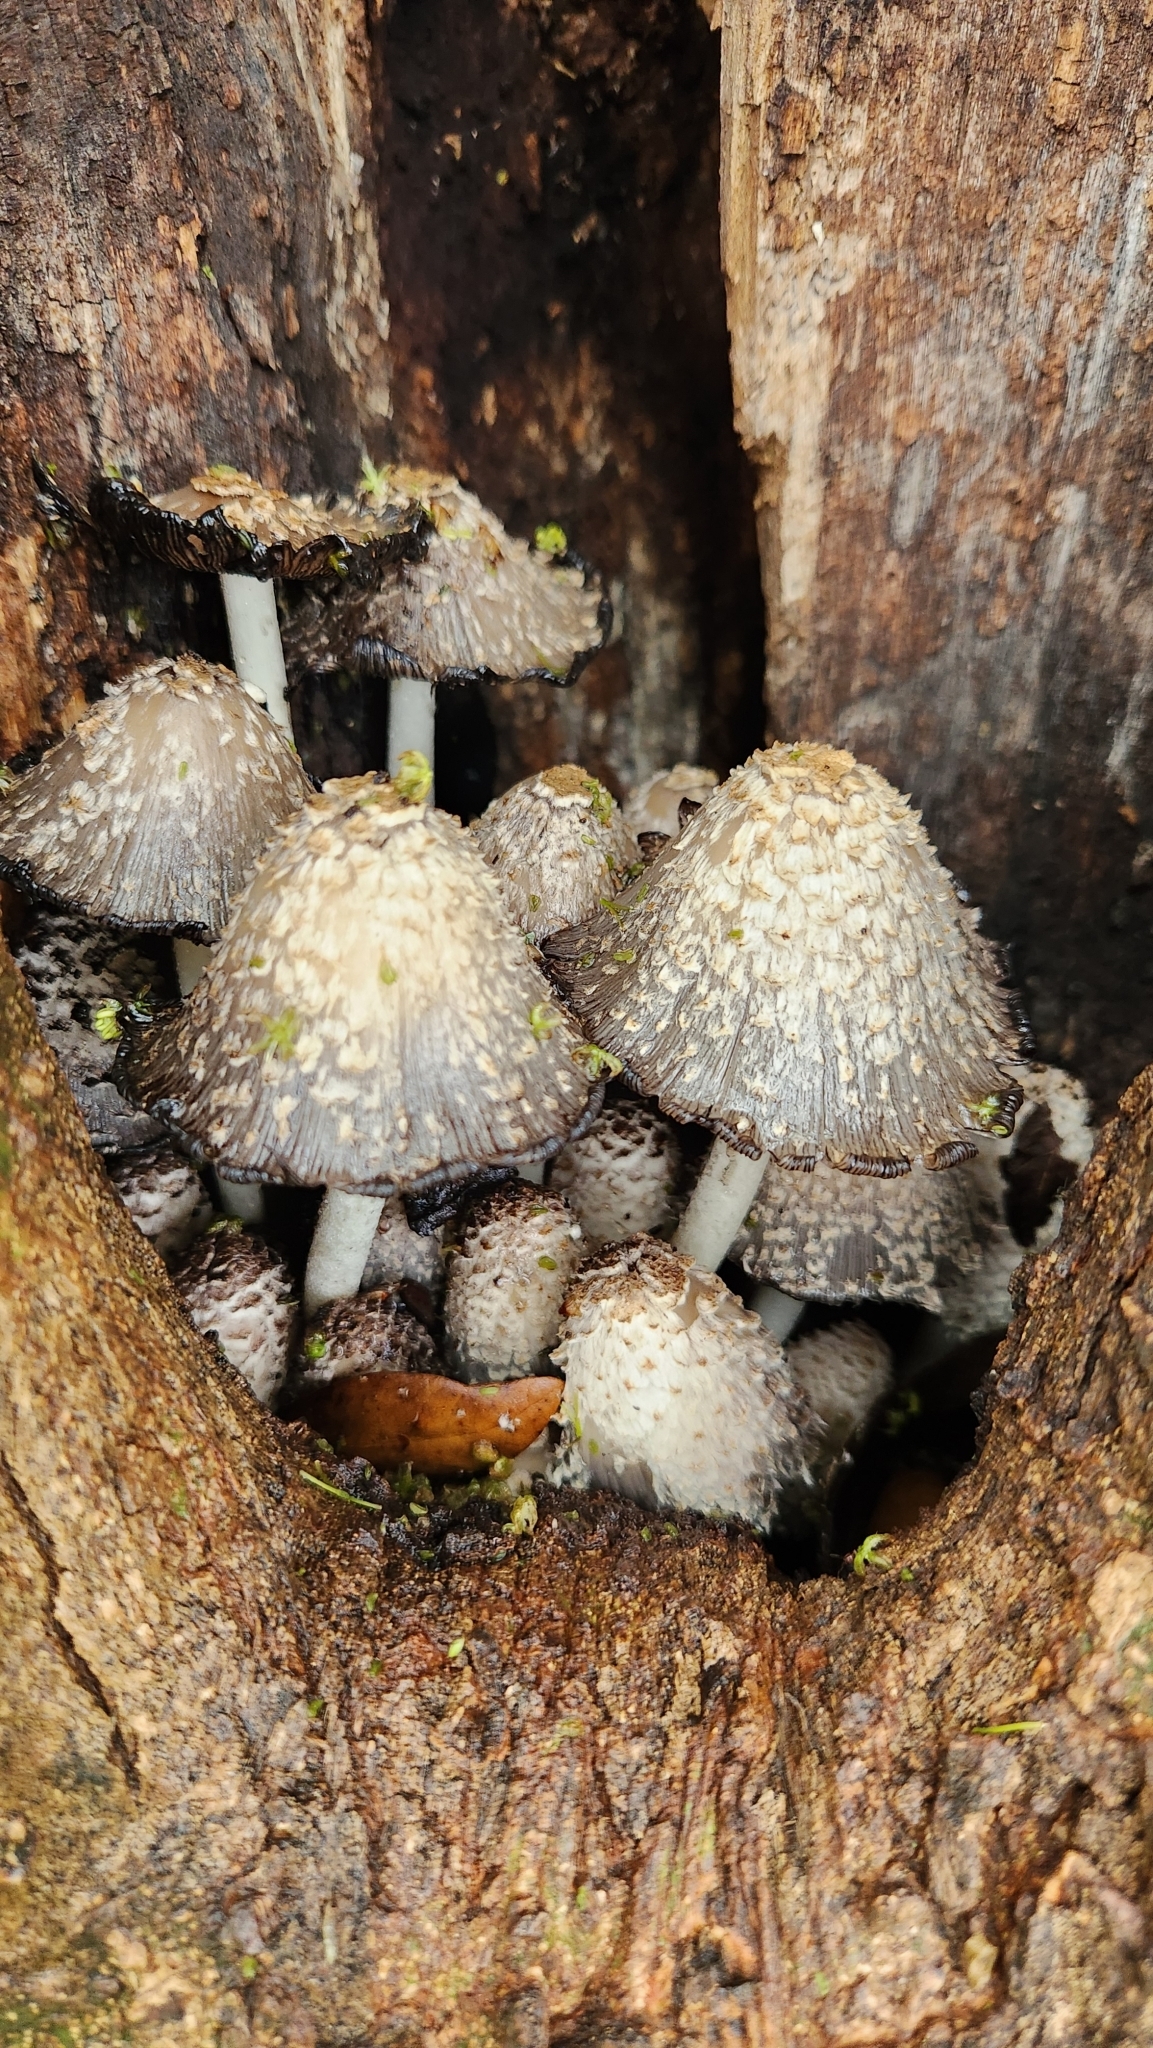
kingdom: Fungi
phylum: Basidiomycota
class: Agaricomycetes
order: Agaricales
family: Psathyrellaceae
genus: Coprinopsis
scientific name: Coprinopsis strossmayeri
